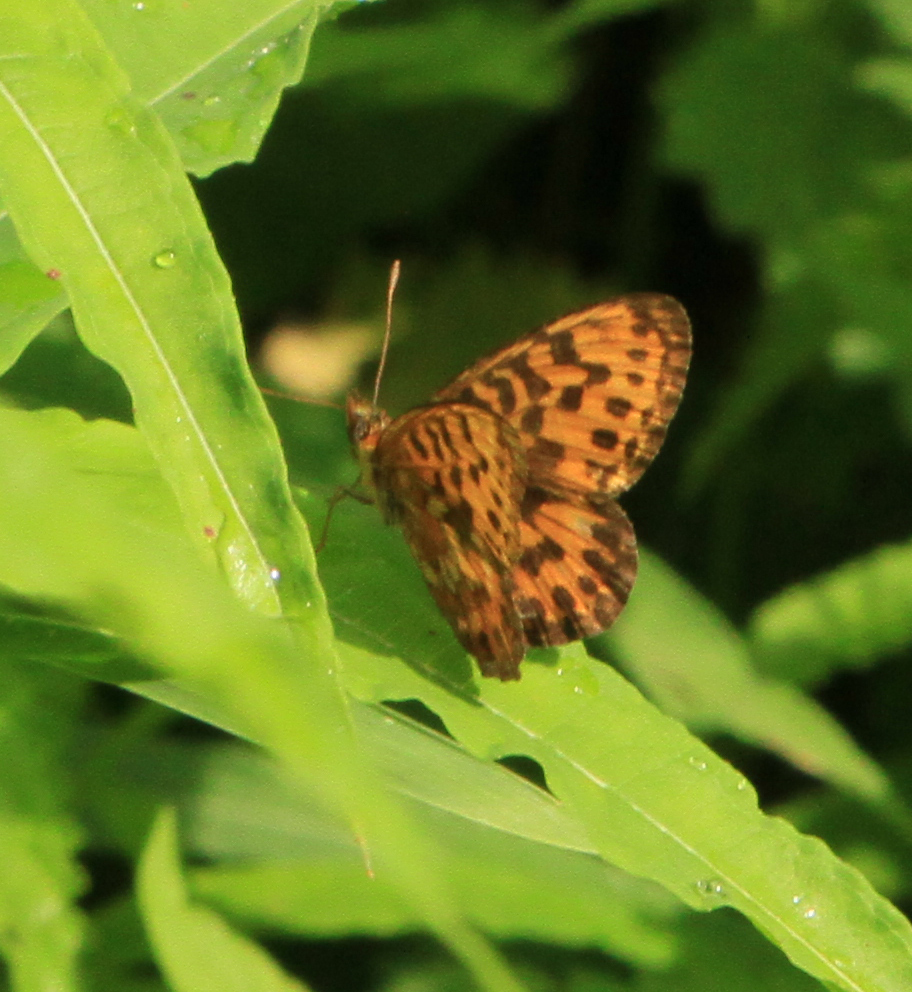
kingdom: Animalia
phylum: Arthropoda
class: Insecta
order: Lepidoptera
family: Nymphalidae
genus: Boloria
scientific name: Boloria thore
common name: Thor's fritillary
